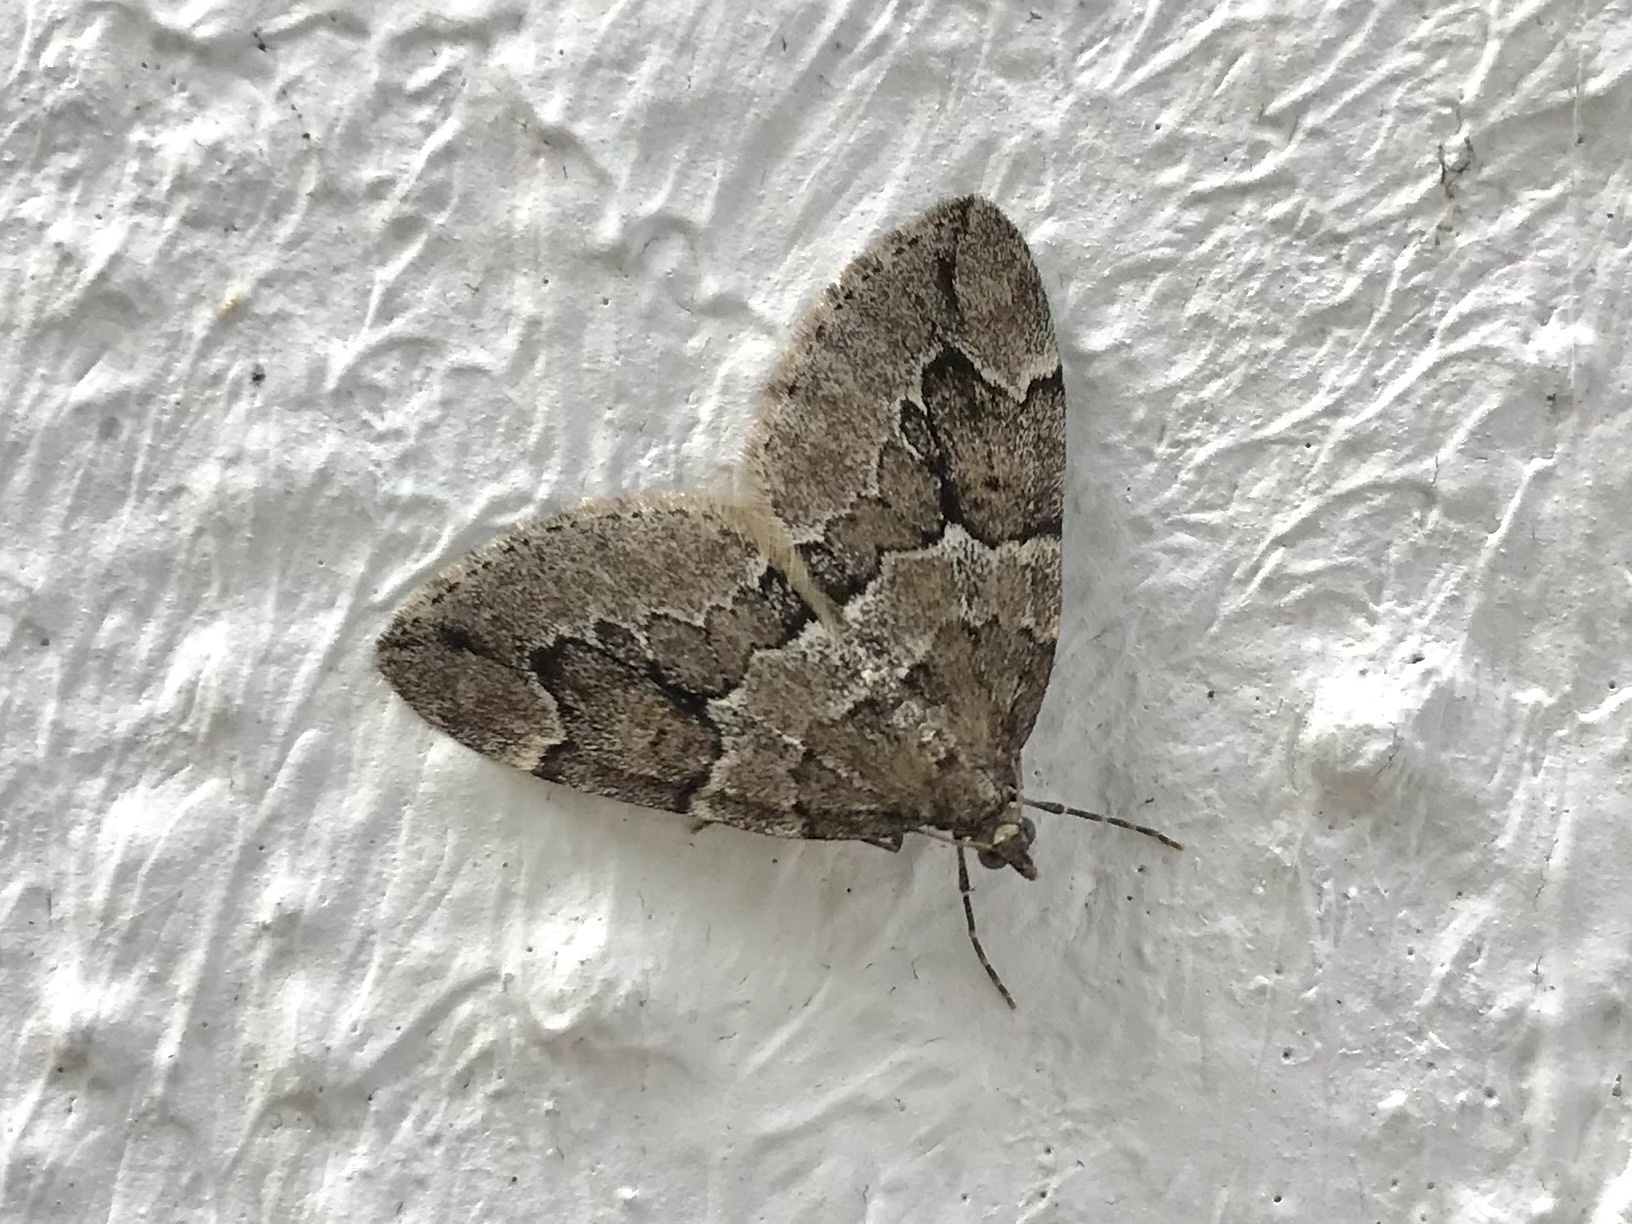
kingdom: Animalia
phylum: Arthropoda
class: Insecta
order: Lepidoptera
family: Geometridae
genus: Thera
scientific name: Thera juniperata
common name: Juniper carpet
